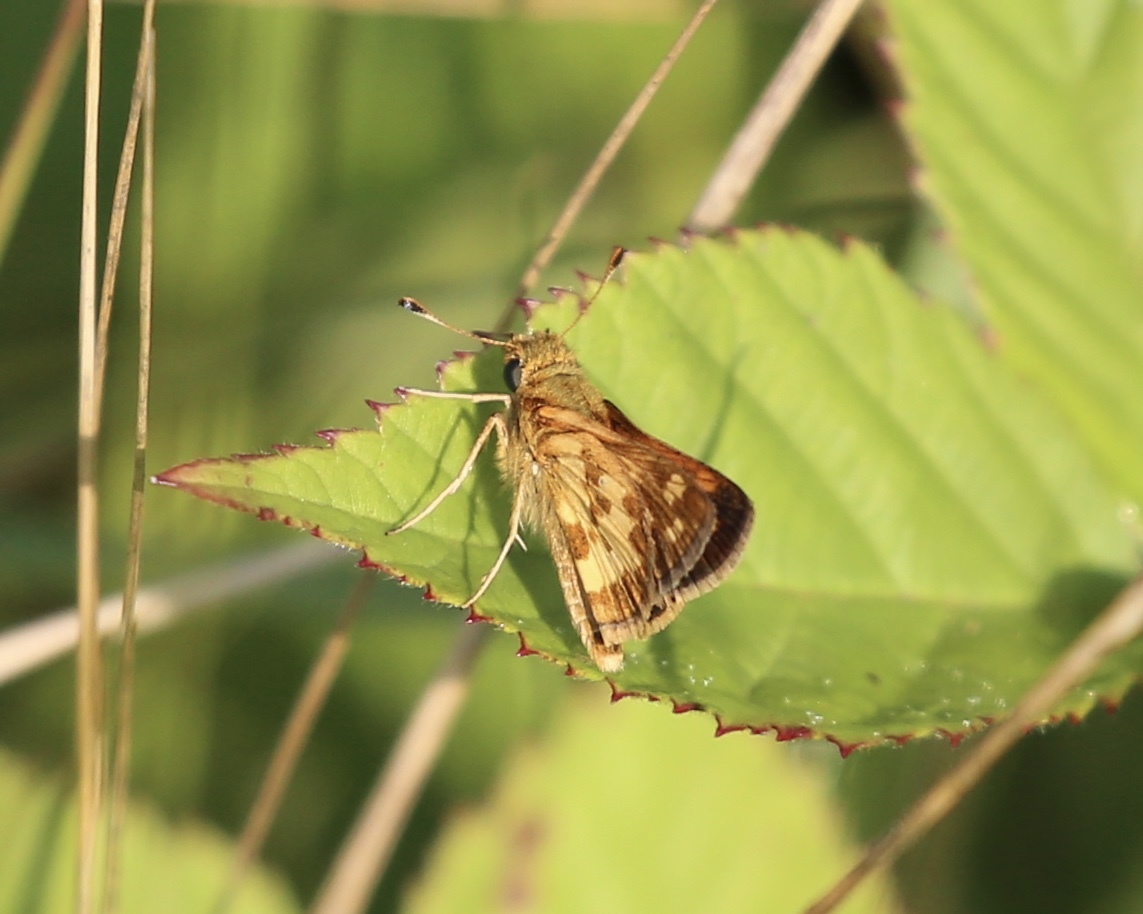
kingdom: Animalia
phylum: Arthropoda
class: Insecta
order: Lepidoptera
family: Hesperiidae
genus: Polites
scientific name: Polites coras
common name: Peck's skipper
